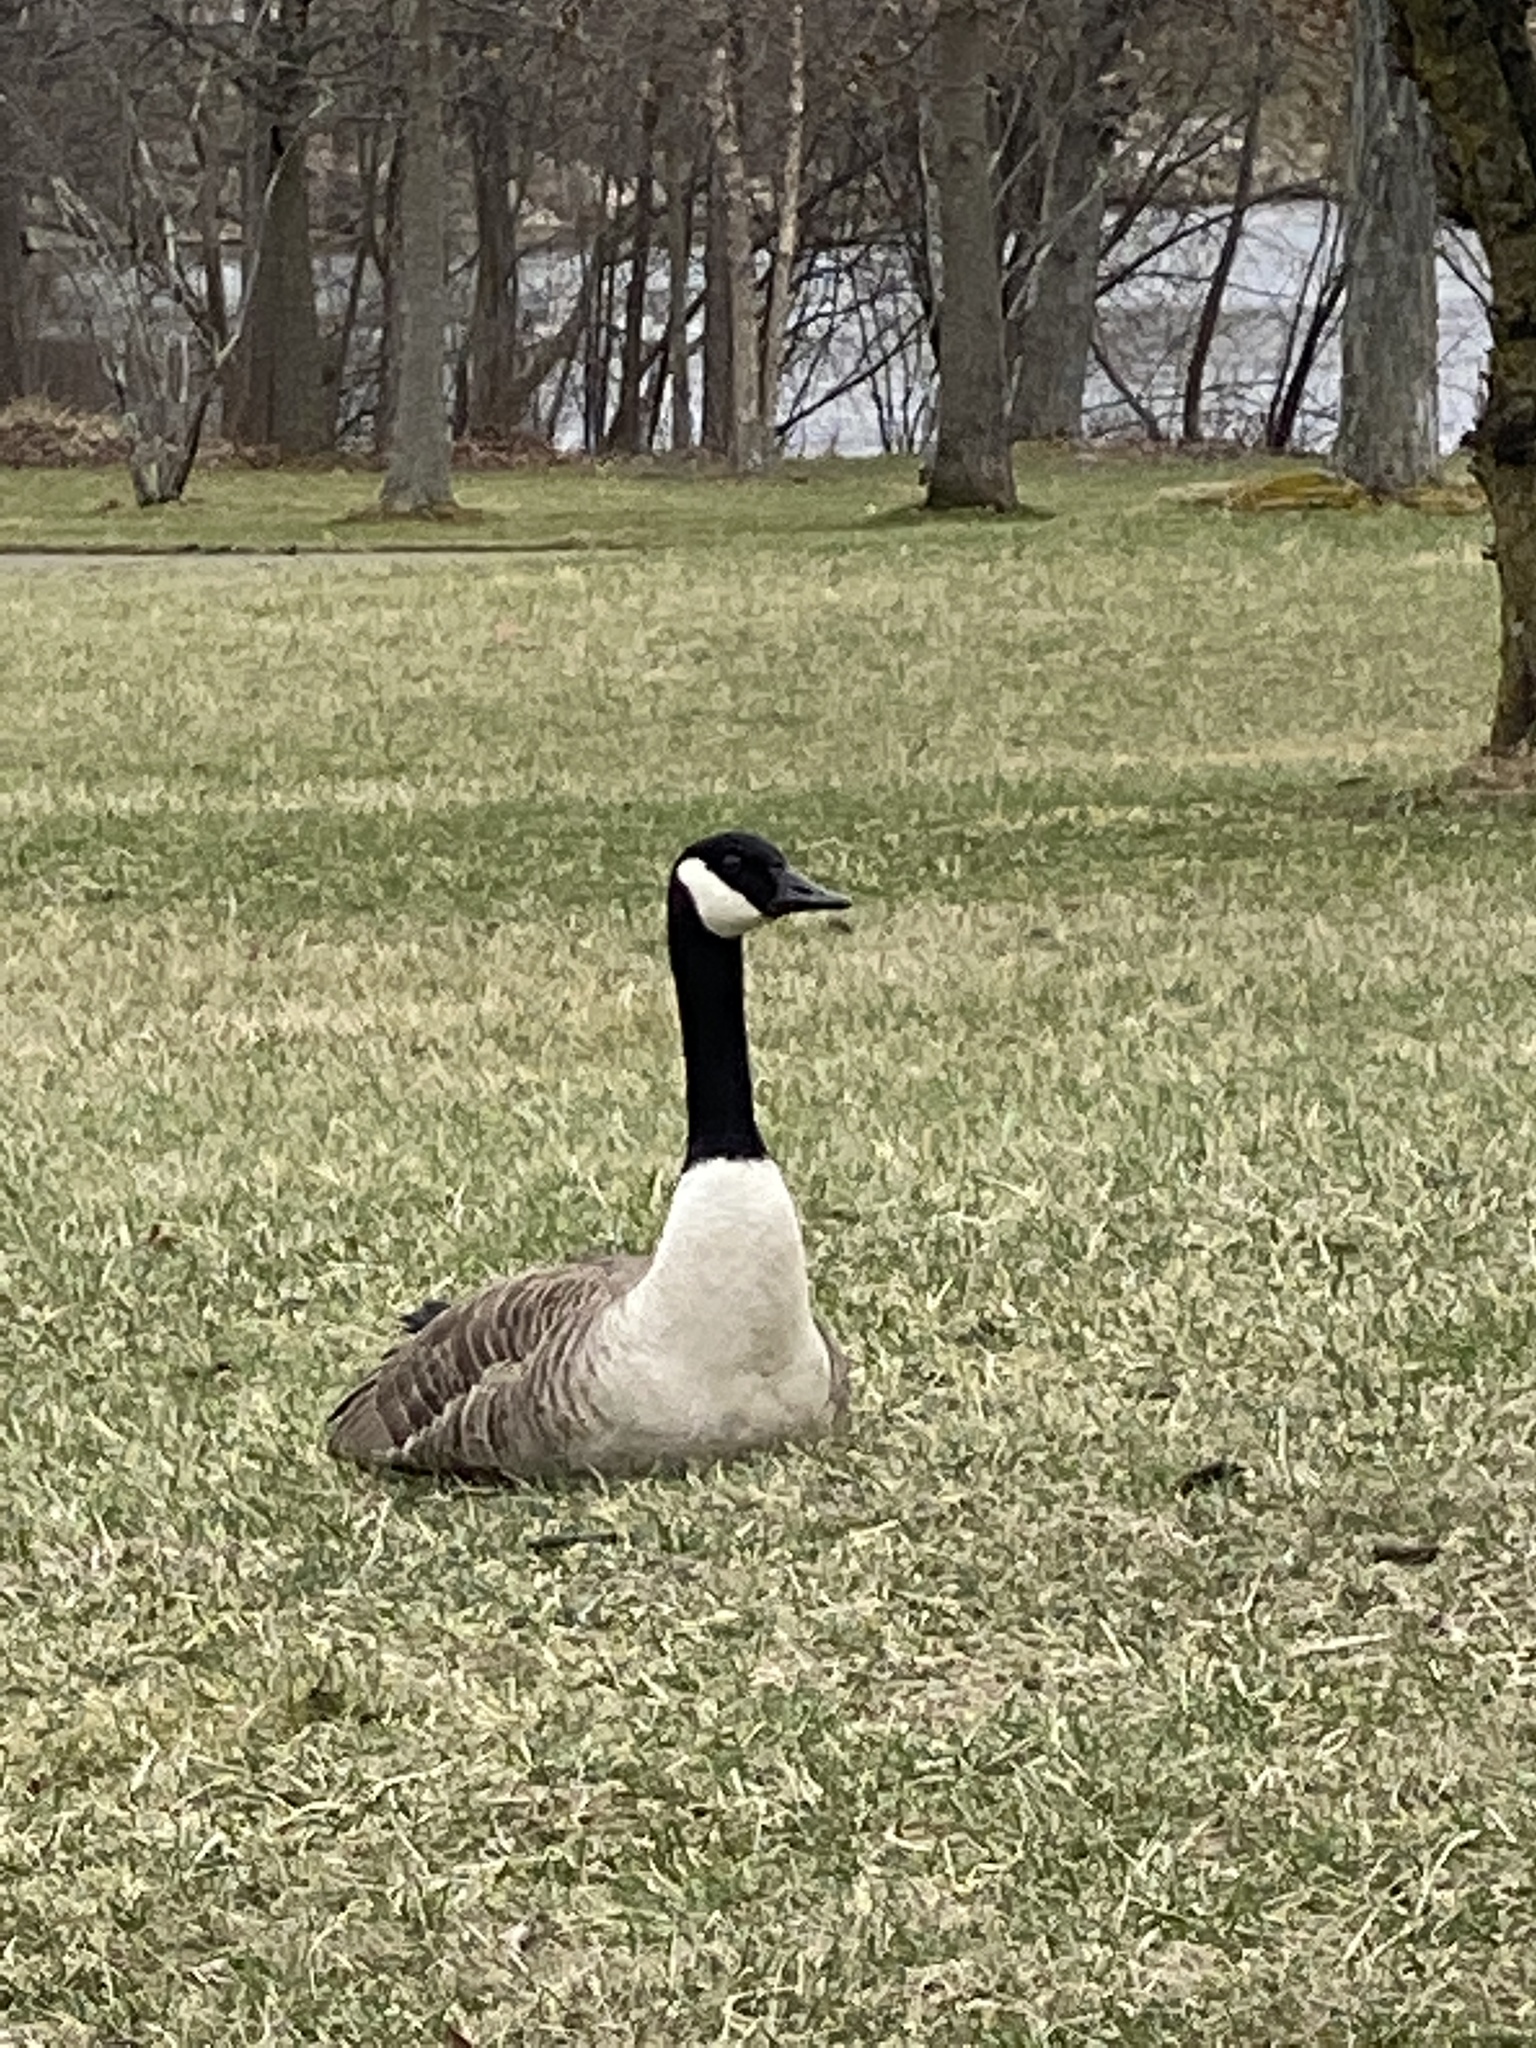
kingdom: Animalia
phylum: Chordata
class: Aves
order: Anseriformes
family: Anatidae
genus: Branta
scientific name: Branta canadensis
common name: Canada goose
